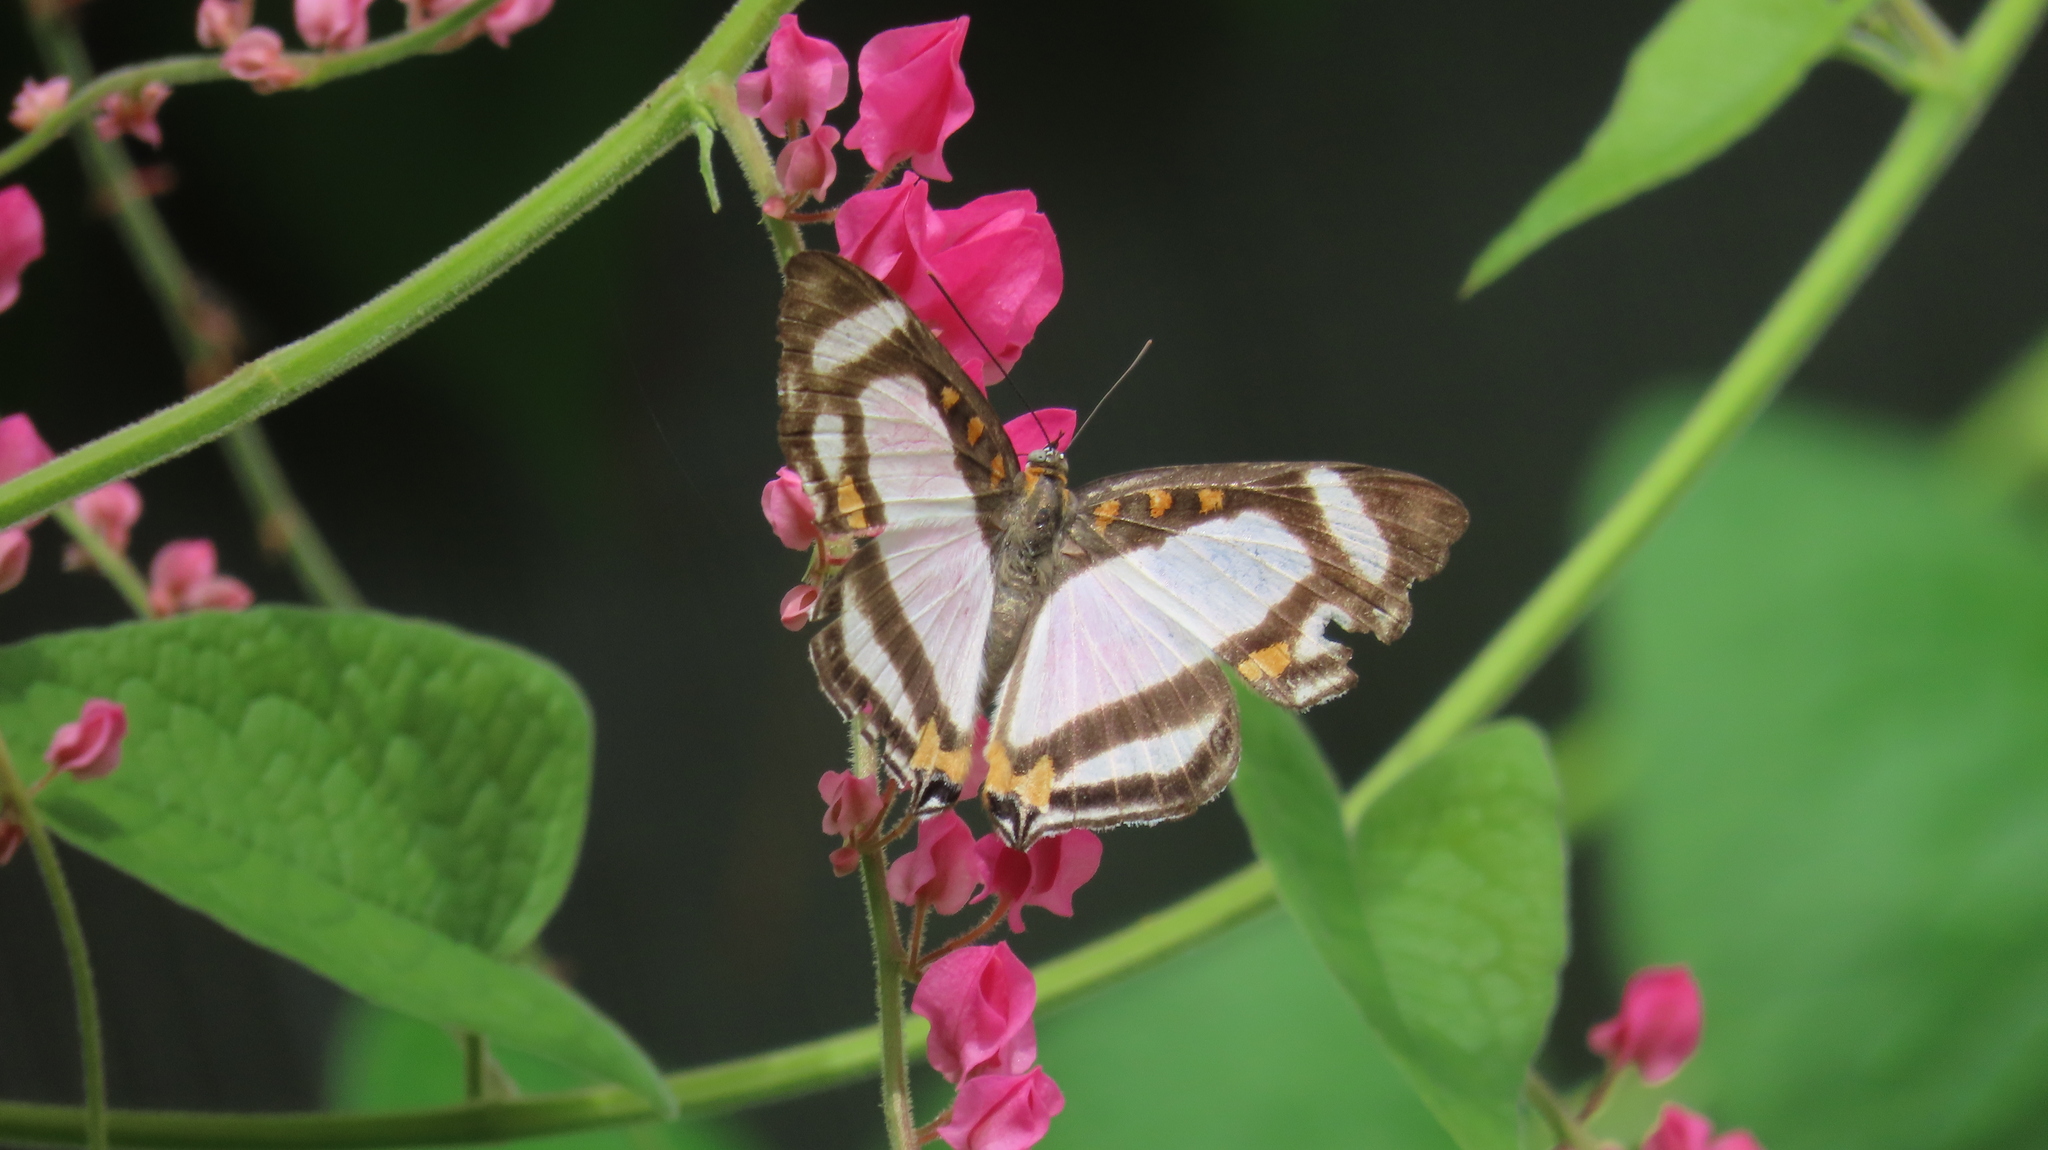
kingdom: Animalia
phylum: Arthropoda
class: Insecta
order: Lepidoptera
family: Riodinidae
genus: Thisbe
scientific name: Thisbe lycorias
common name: Banner metalmark
